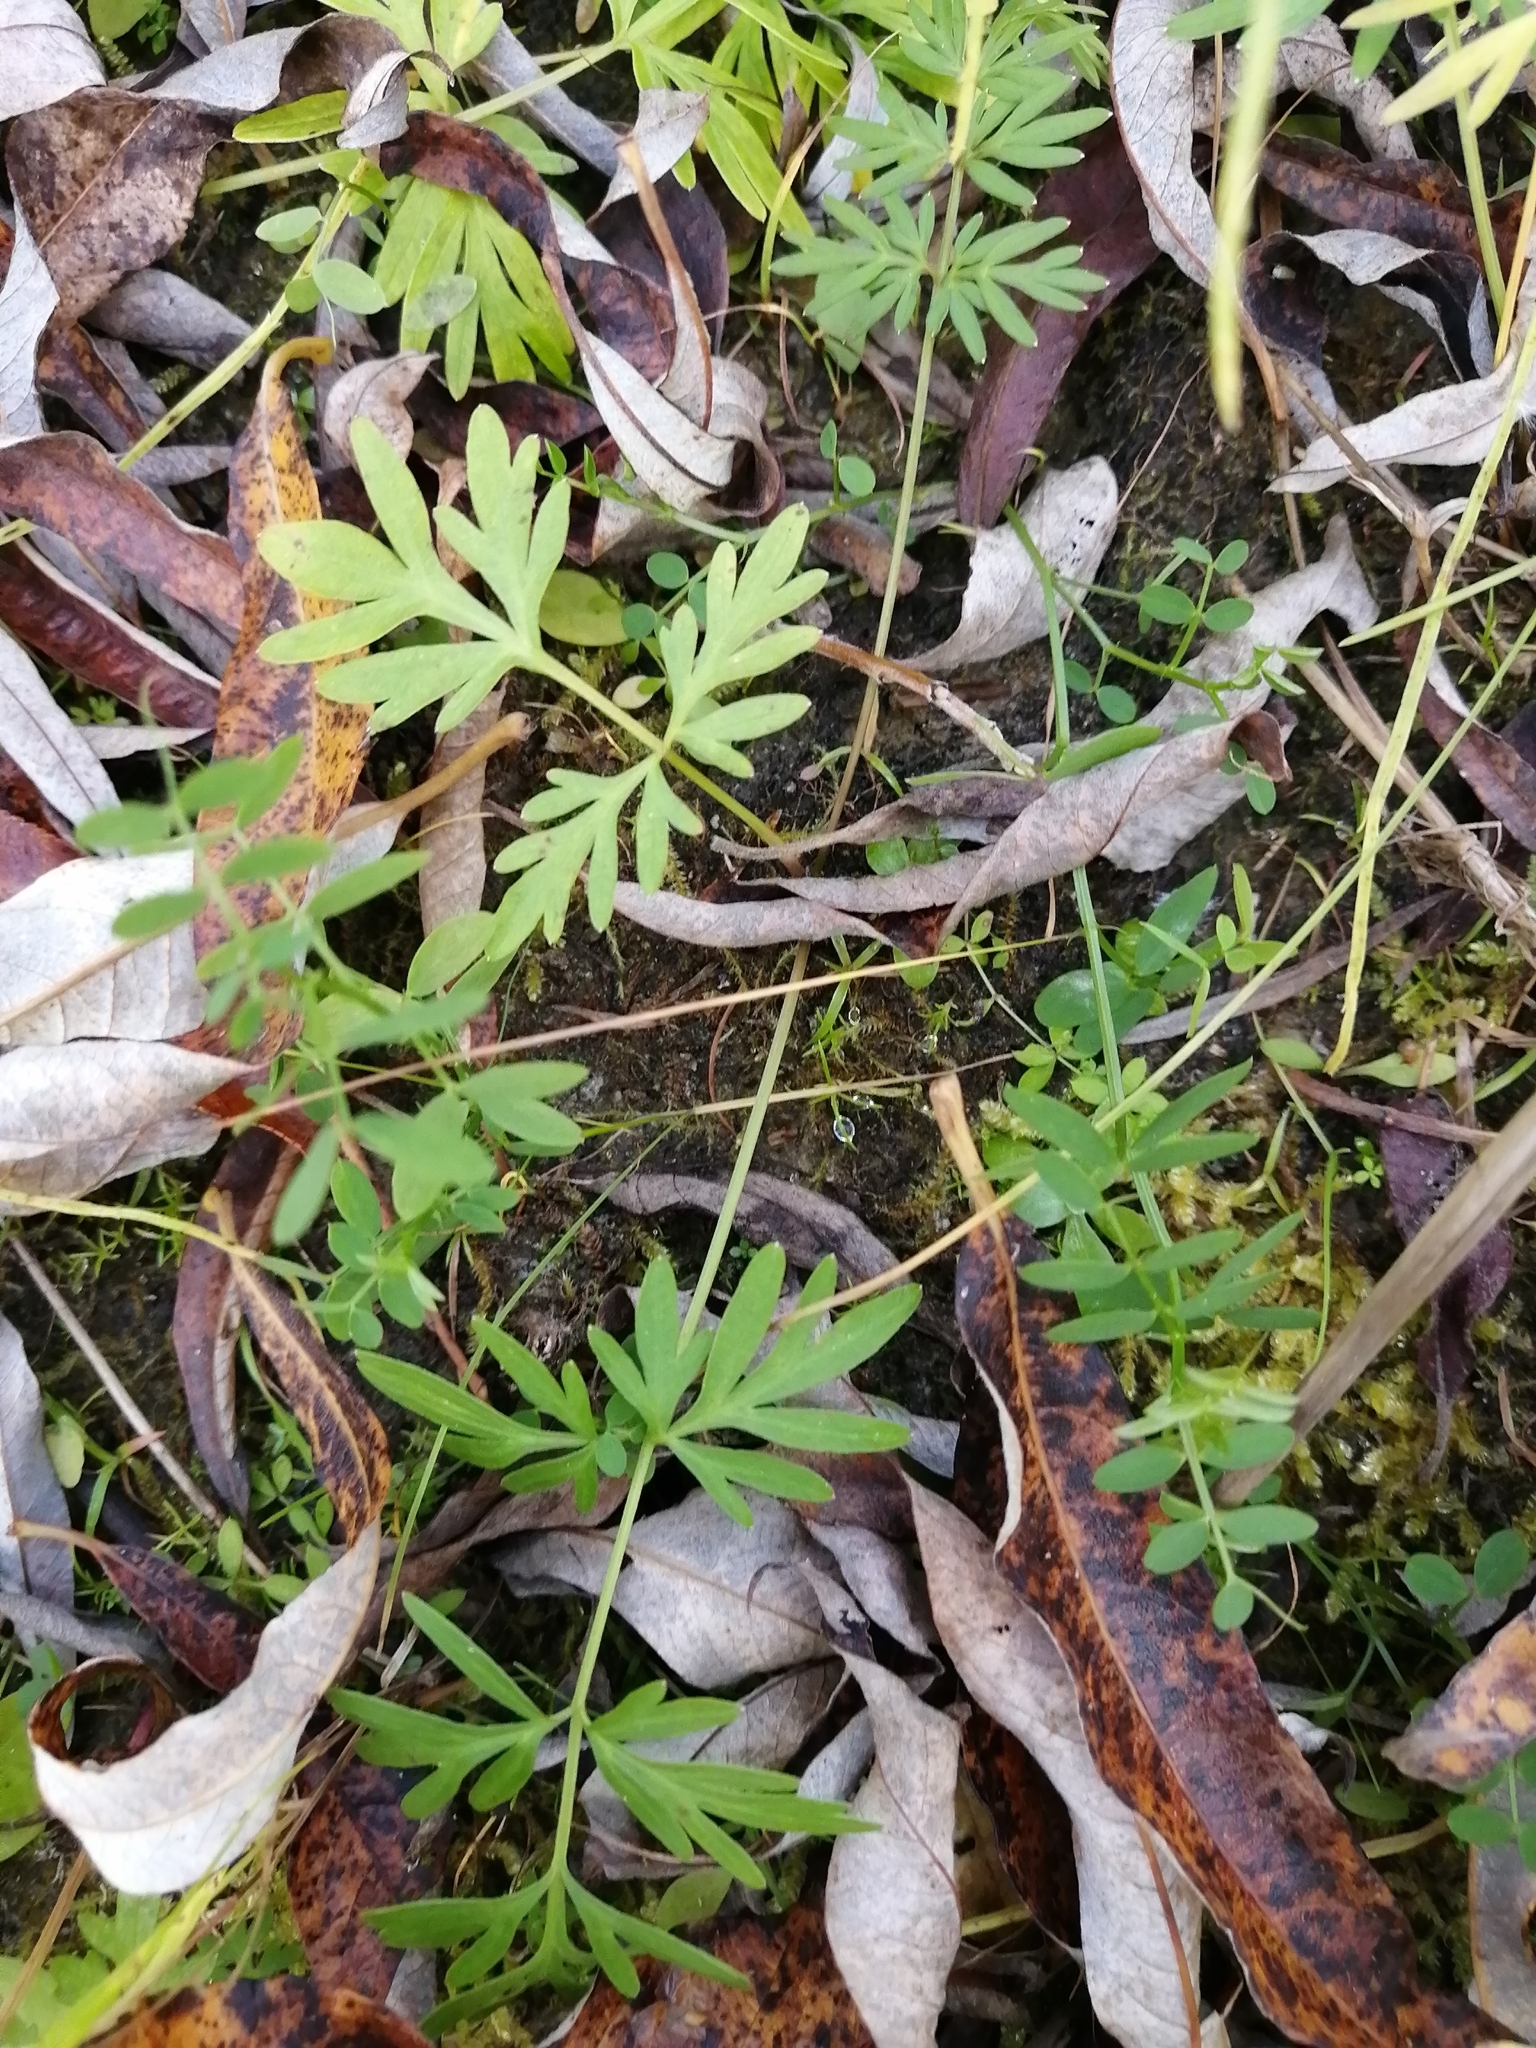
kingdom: Plantae
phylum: Tracheophyta
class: Magnoliopsida
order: Apiales
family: Apiaceae
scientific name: Apiaceae
